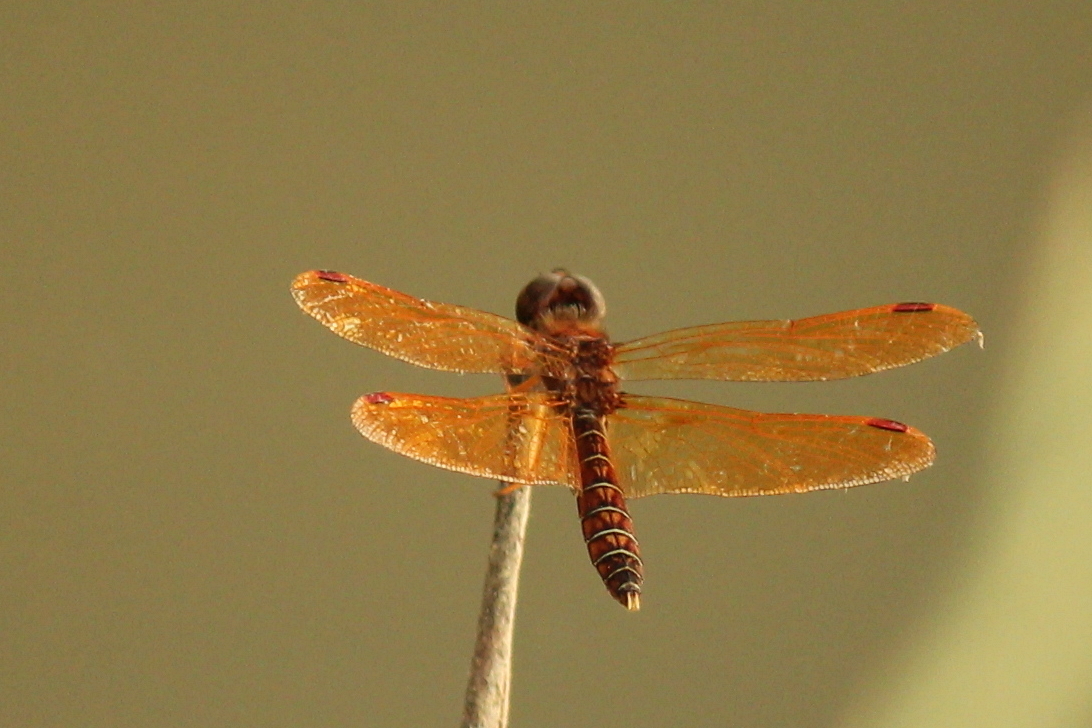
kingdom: Animalia
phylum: Arthropoda
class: Insecta
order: Odonata
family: Libellulidae
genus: Perithemis
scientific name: Perithemis tenera
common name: Eastern amberwing
